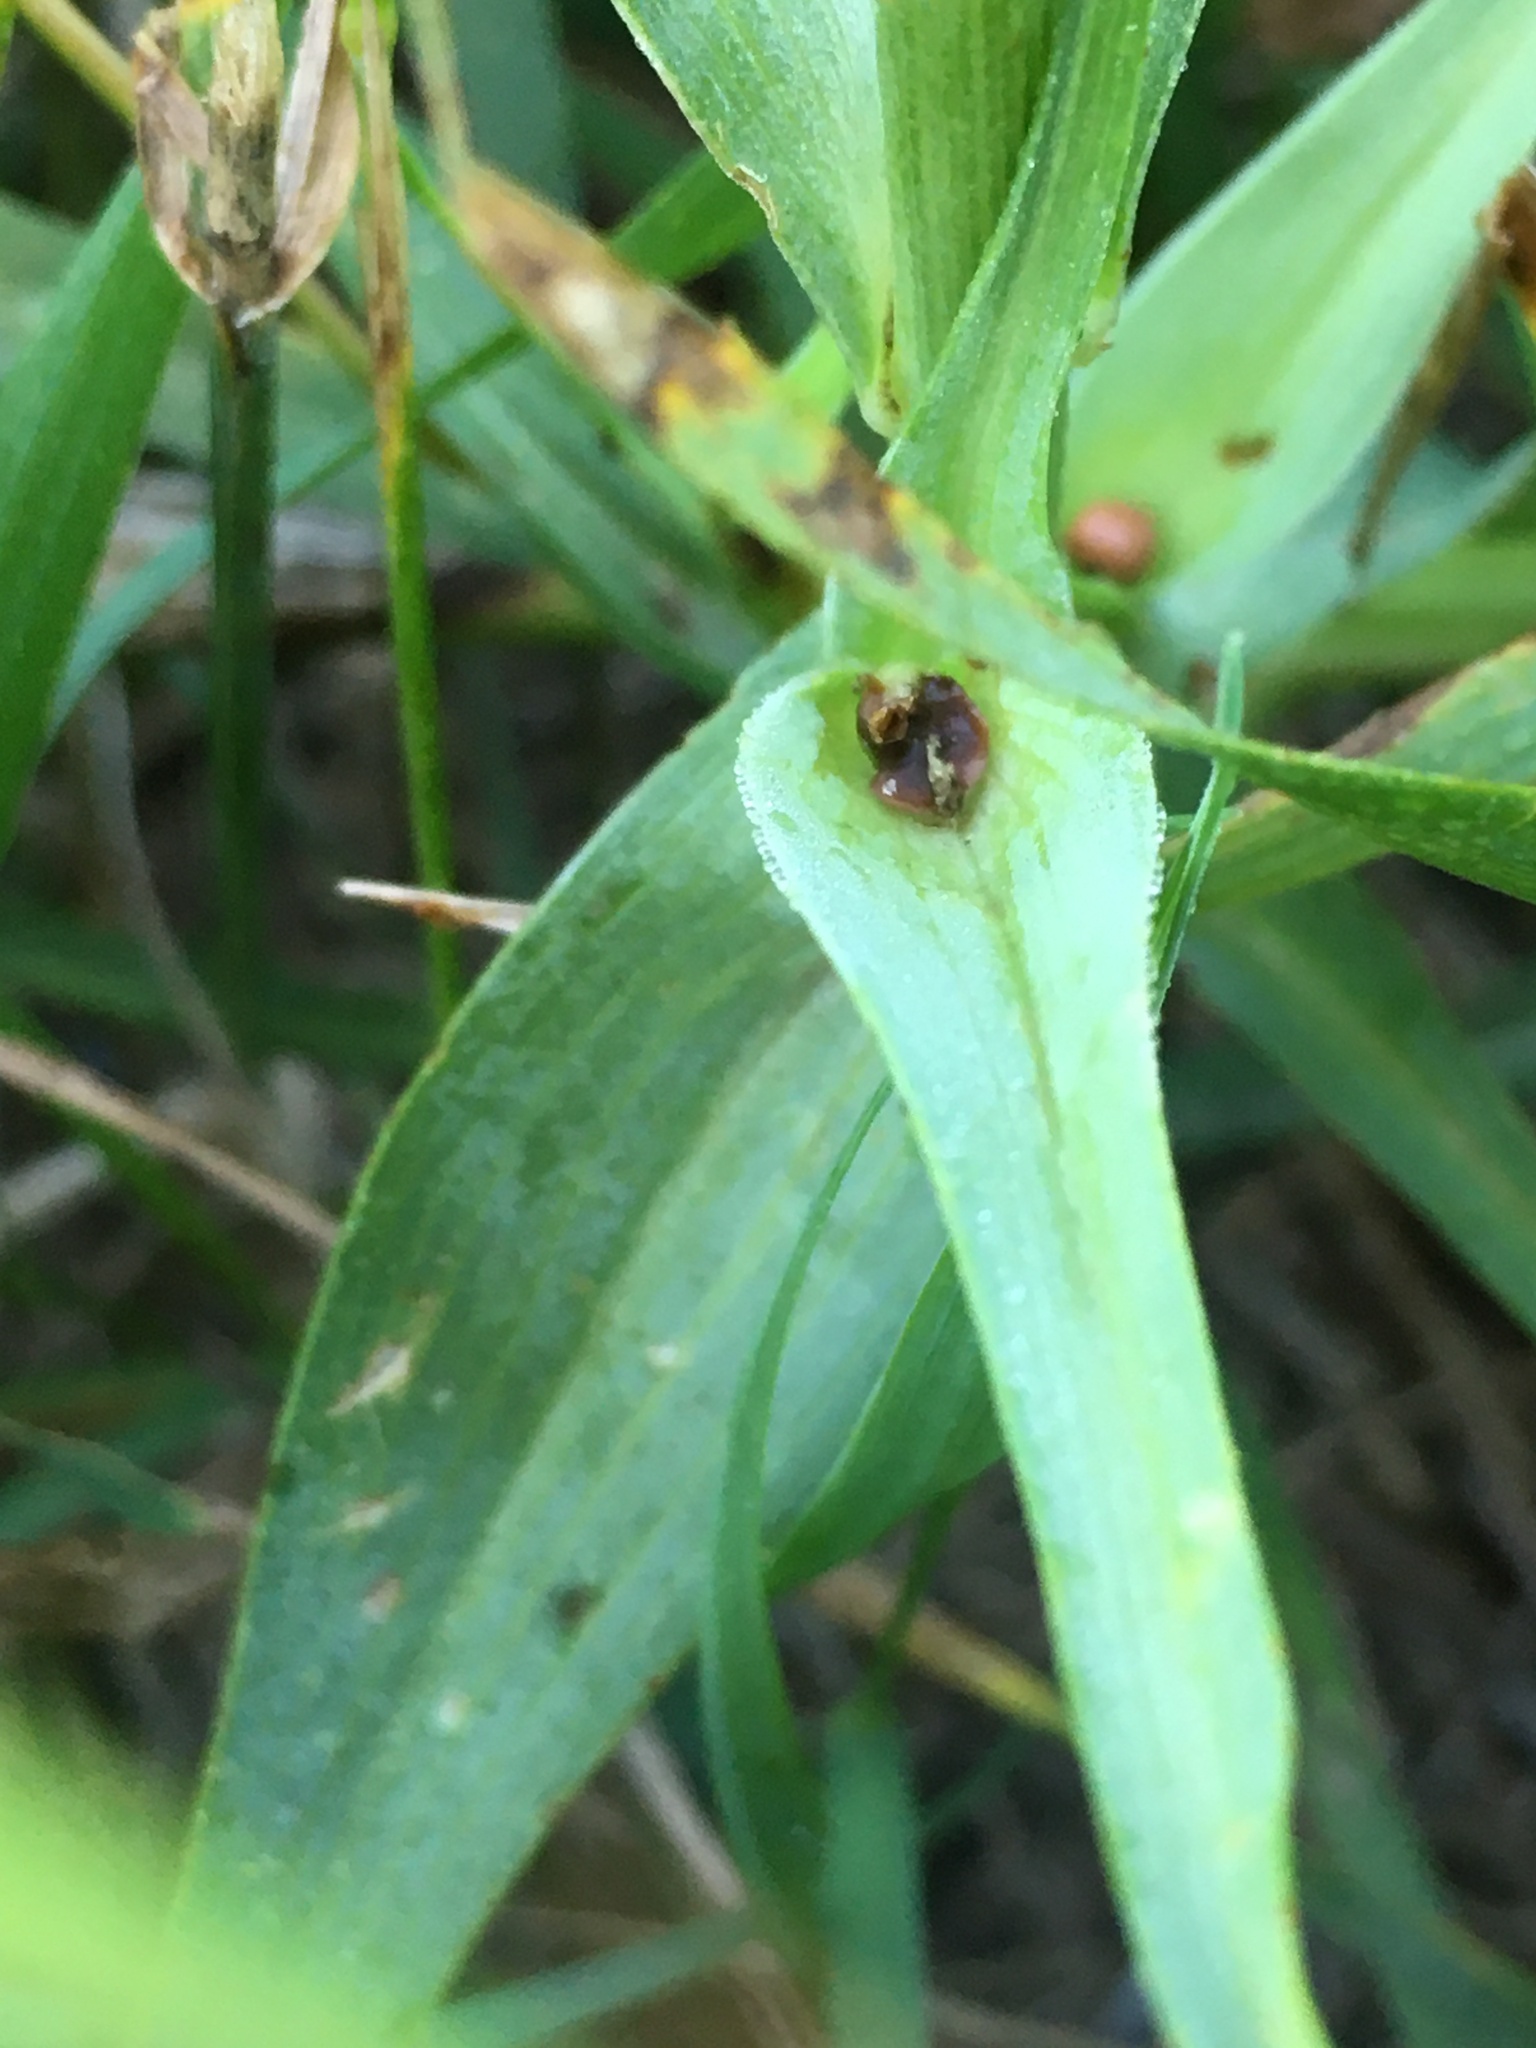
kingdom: Plantae
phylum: Tracheophyta
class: Magnoliopsida
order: Asterales
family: Asteraceae
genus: Tragopogon
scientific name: Tragopogon dubius
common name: Yellow salsify
